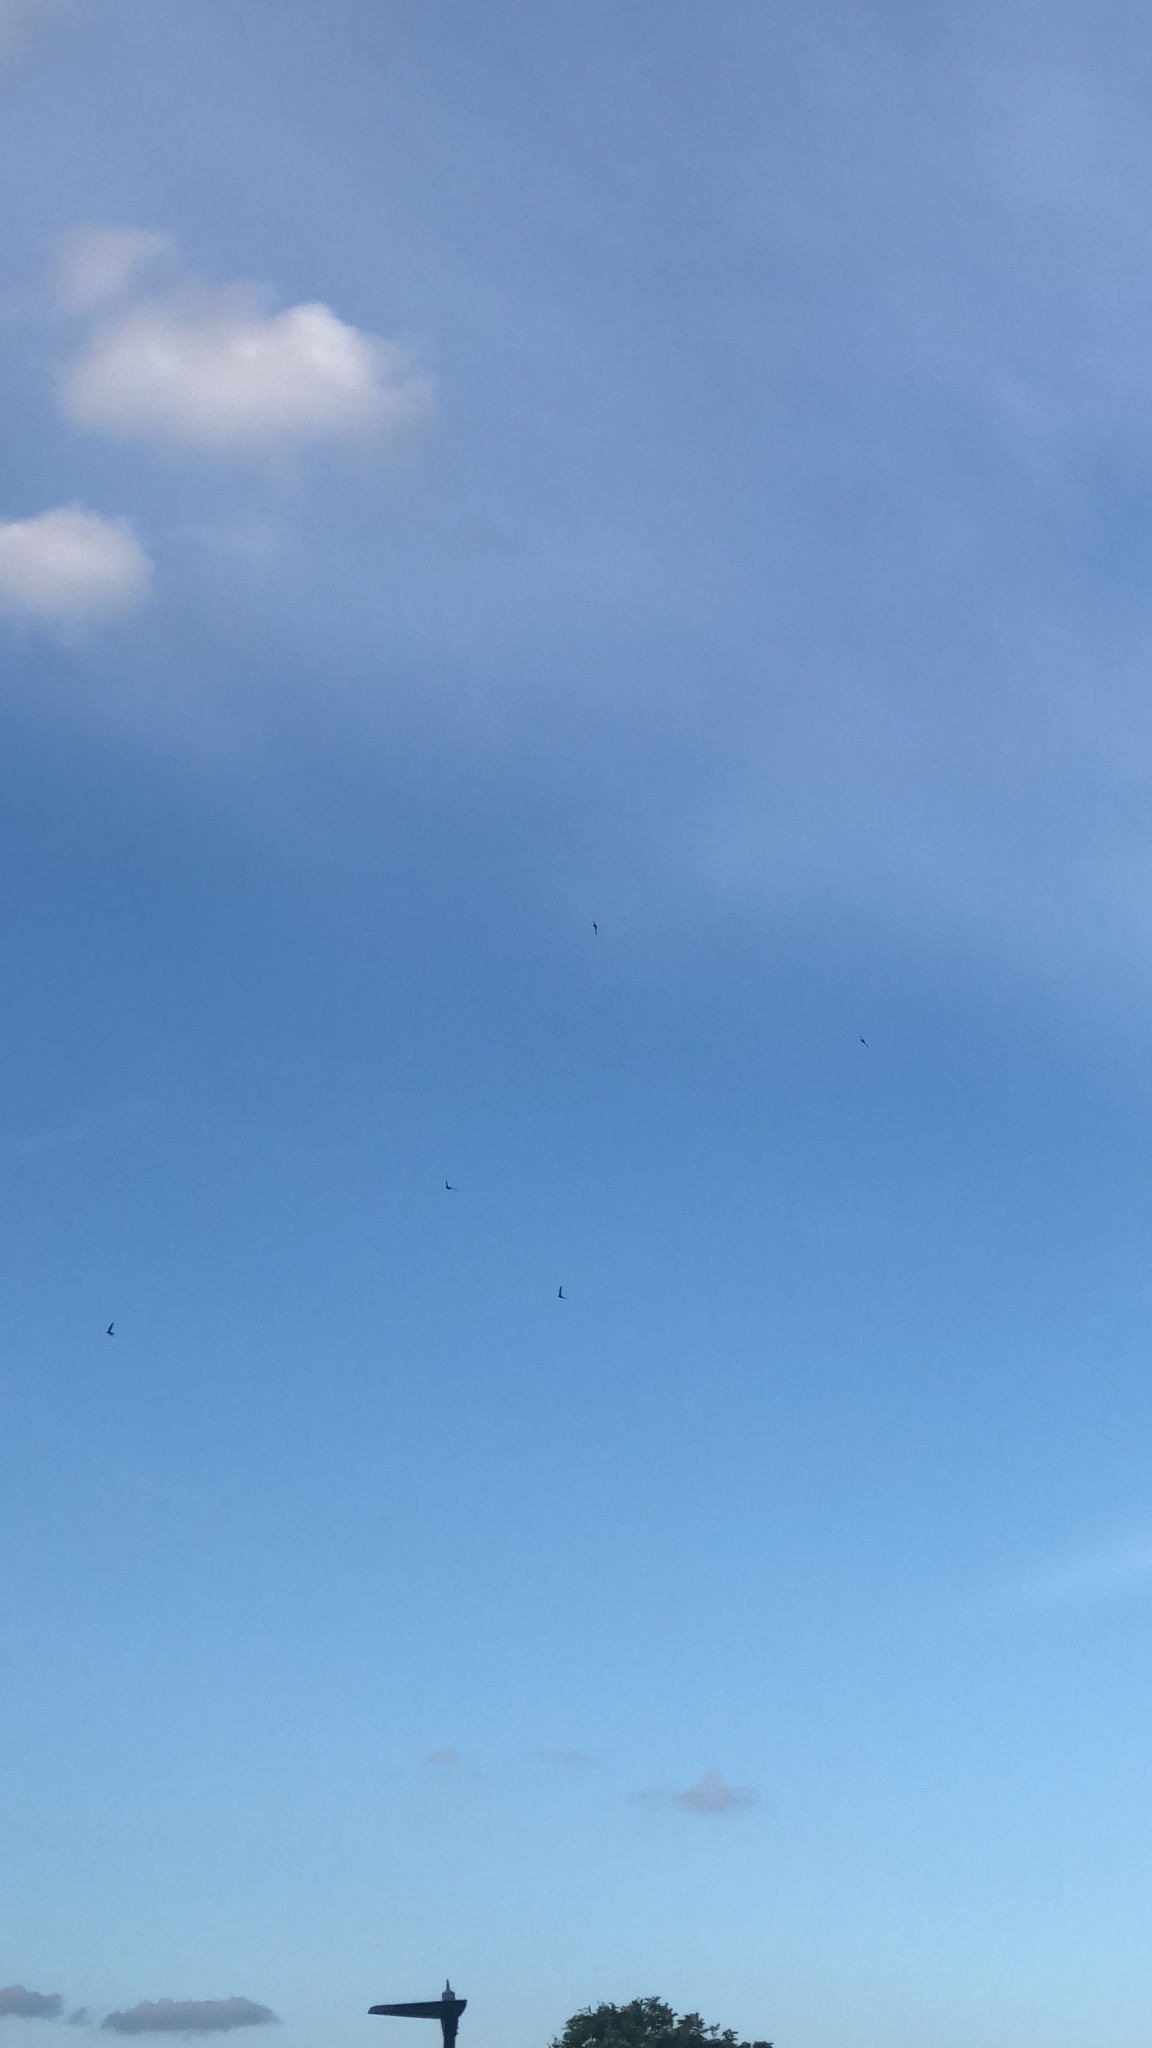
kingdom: Animalia
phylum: Chordata
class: Aves
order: Apodiformes
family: Apodidae
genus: Apus
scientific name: Apus apus
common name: Common swift
